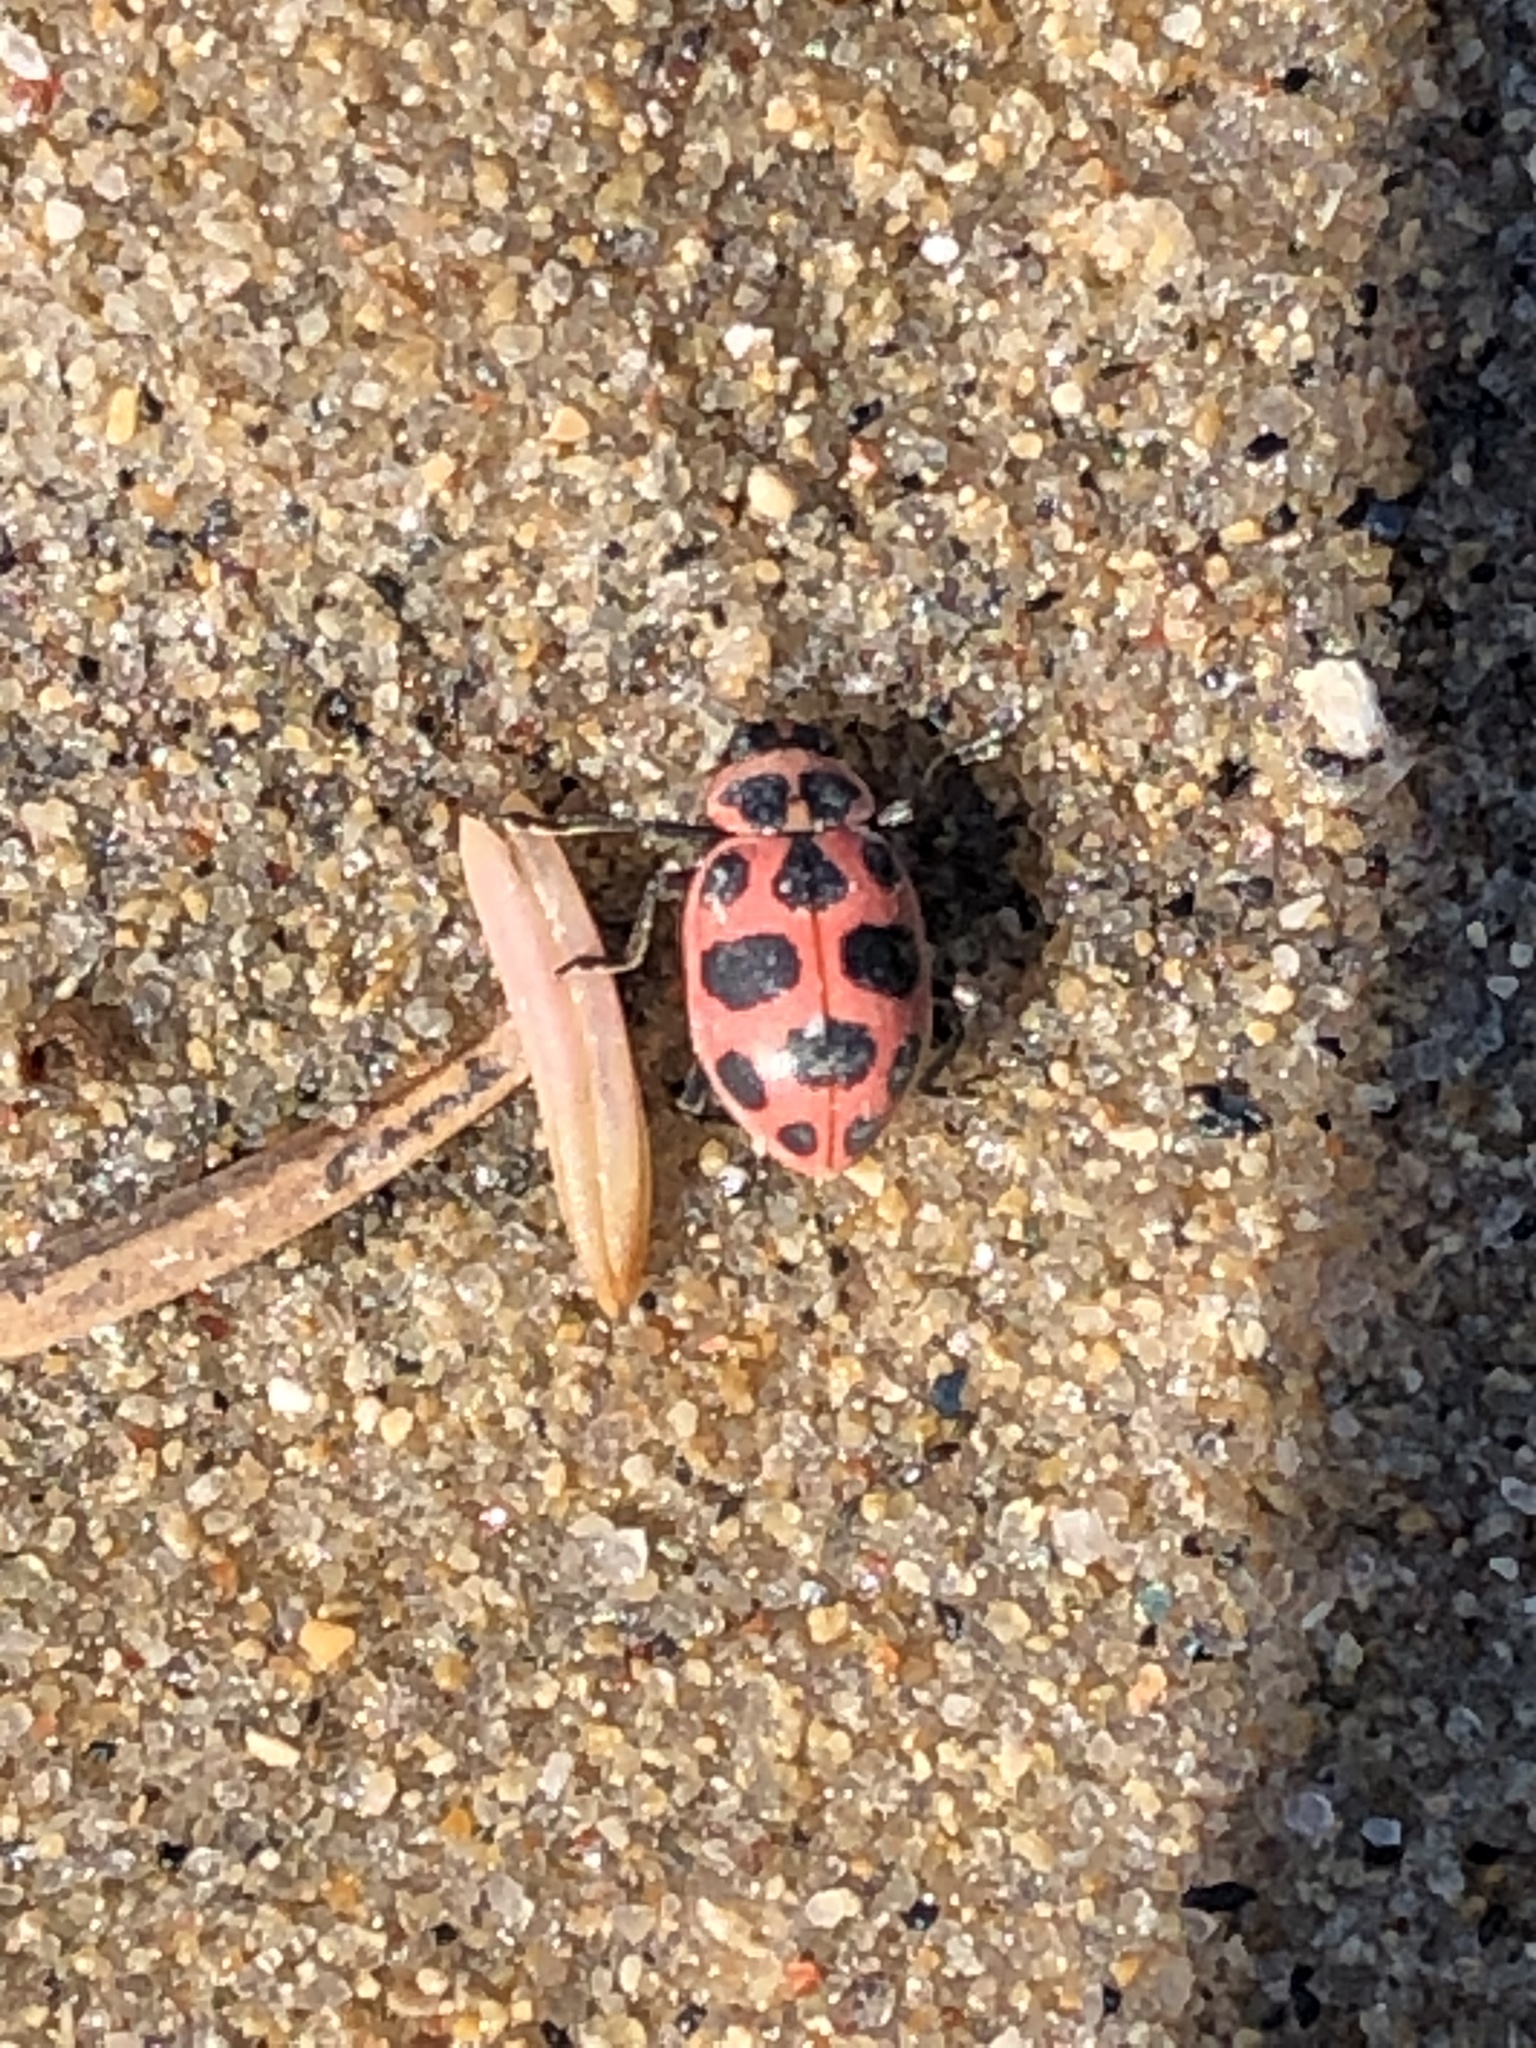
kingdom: Animalia
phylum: Arthropoda
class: Insecta
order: Coleoptera
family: Coccinellidae
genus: Coleomegilla
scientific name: Coleomegilla maculata
